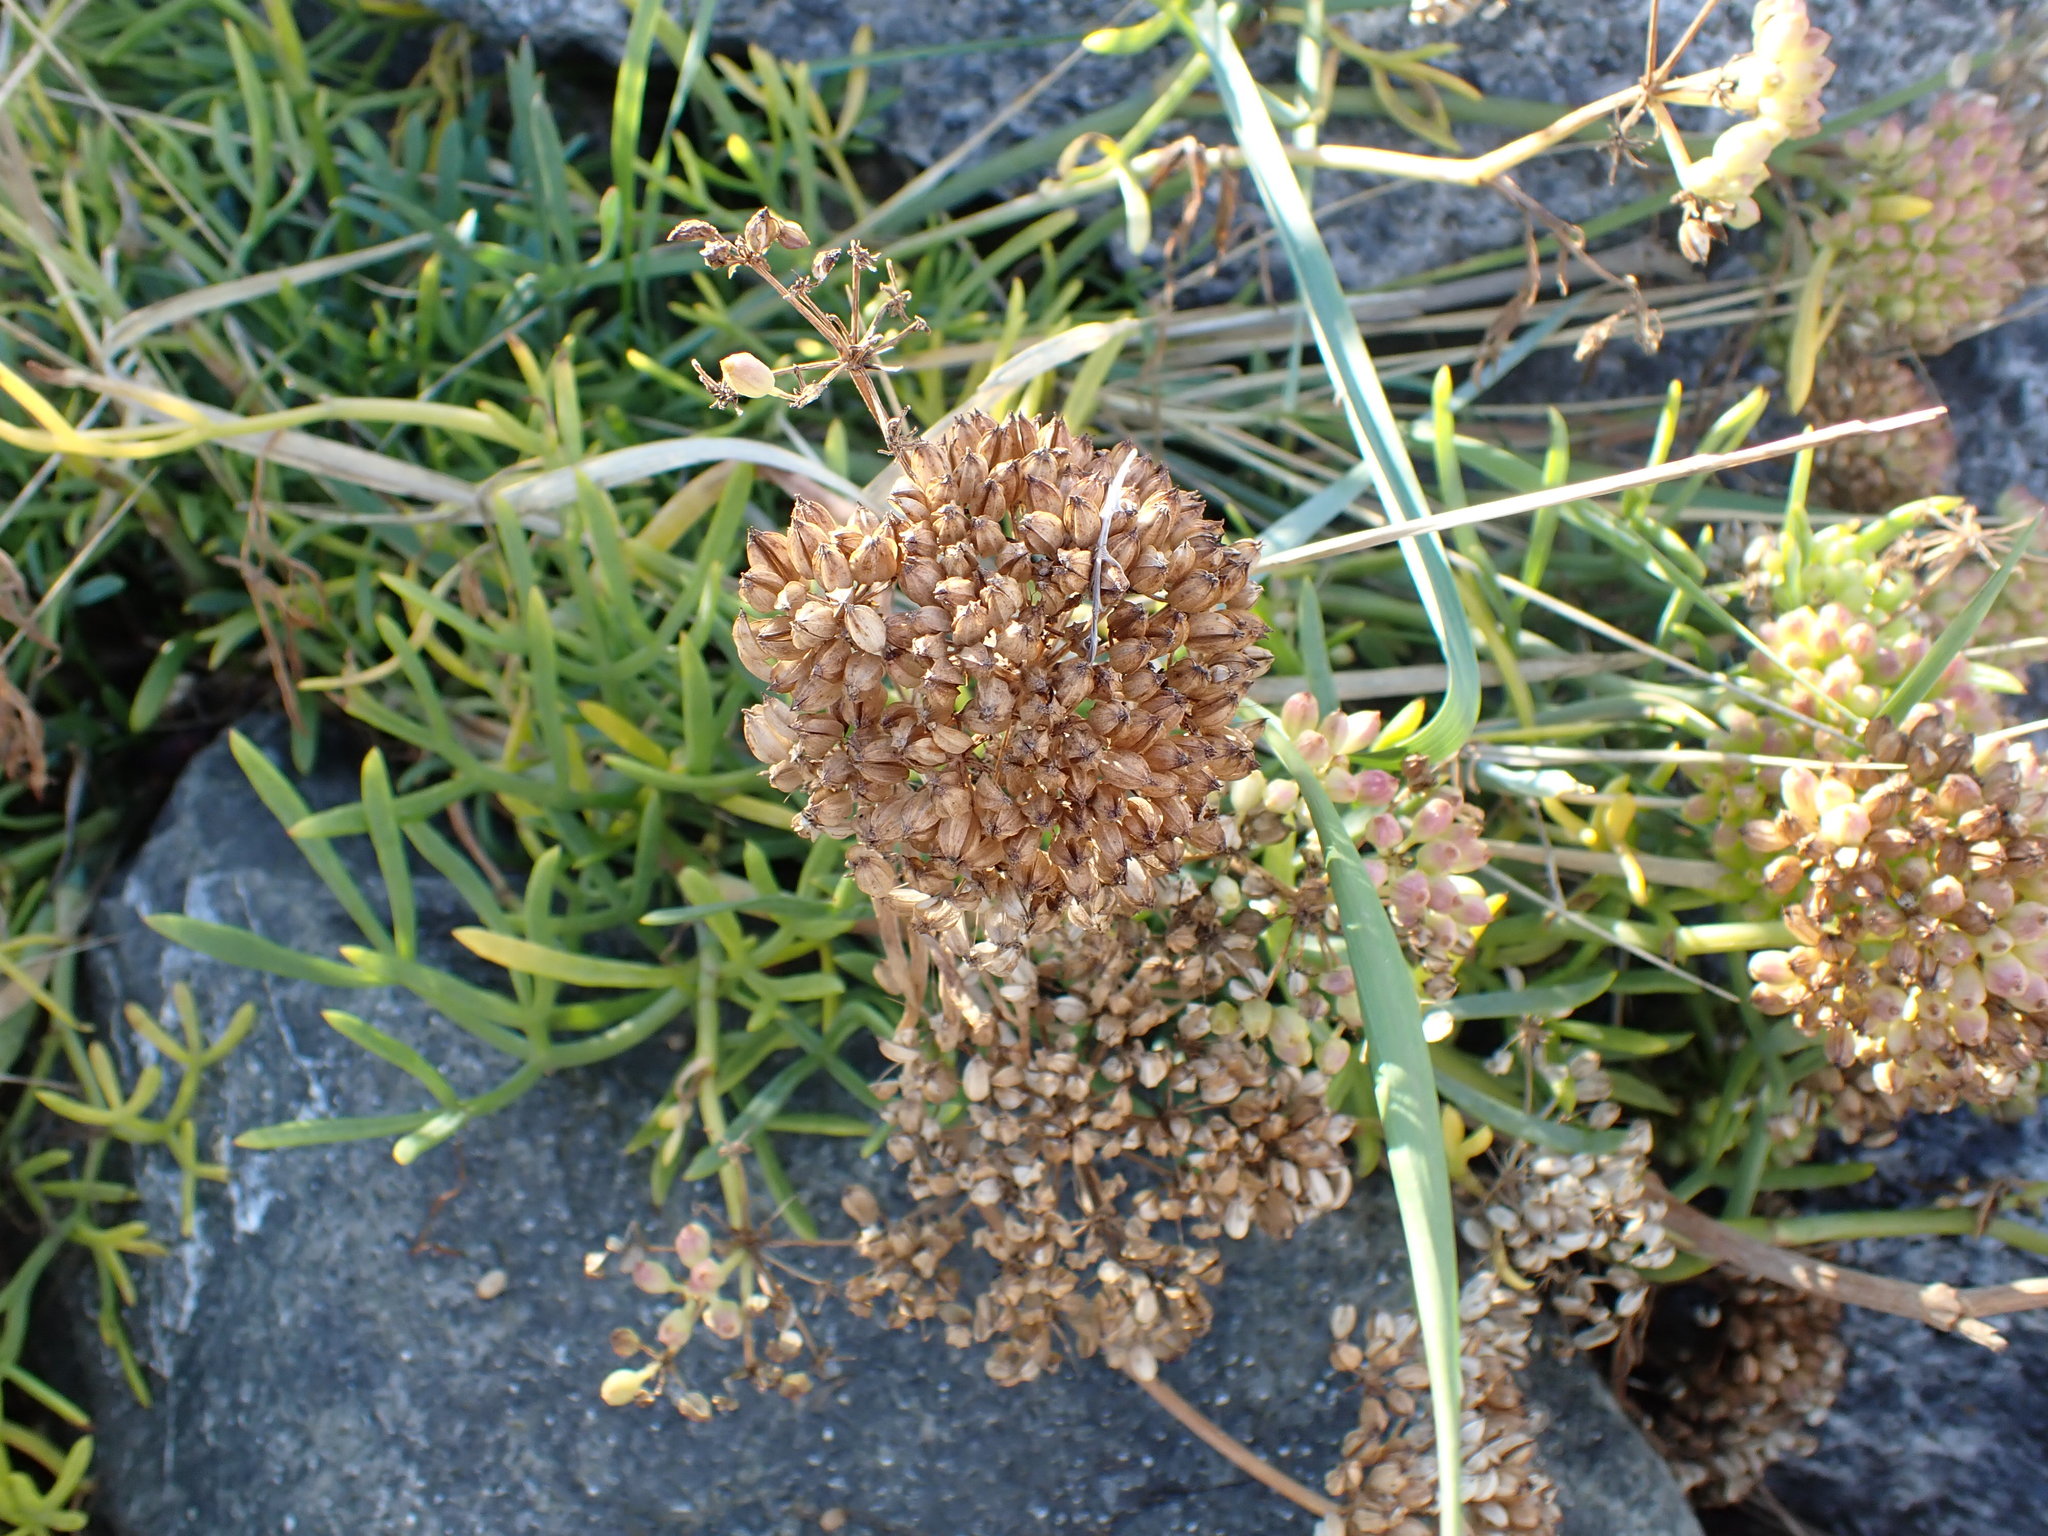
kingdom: Plantae
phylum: Tracheophyta
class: Magnoliopsida
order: Apiales
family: Apiaceae
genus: Crithmum
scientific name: Crithmum maritimum
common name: Rock samphire
